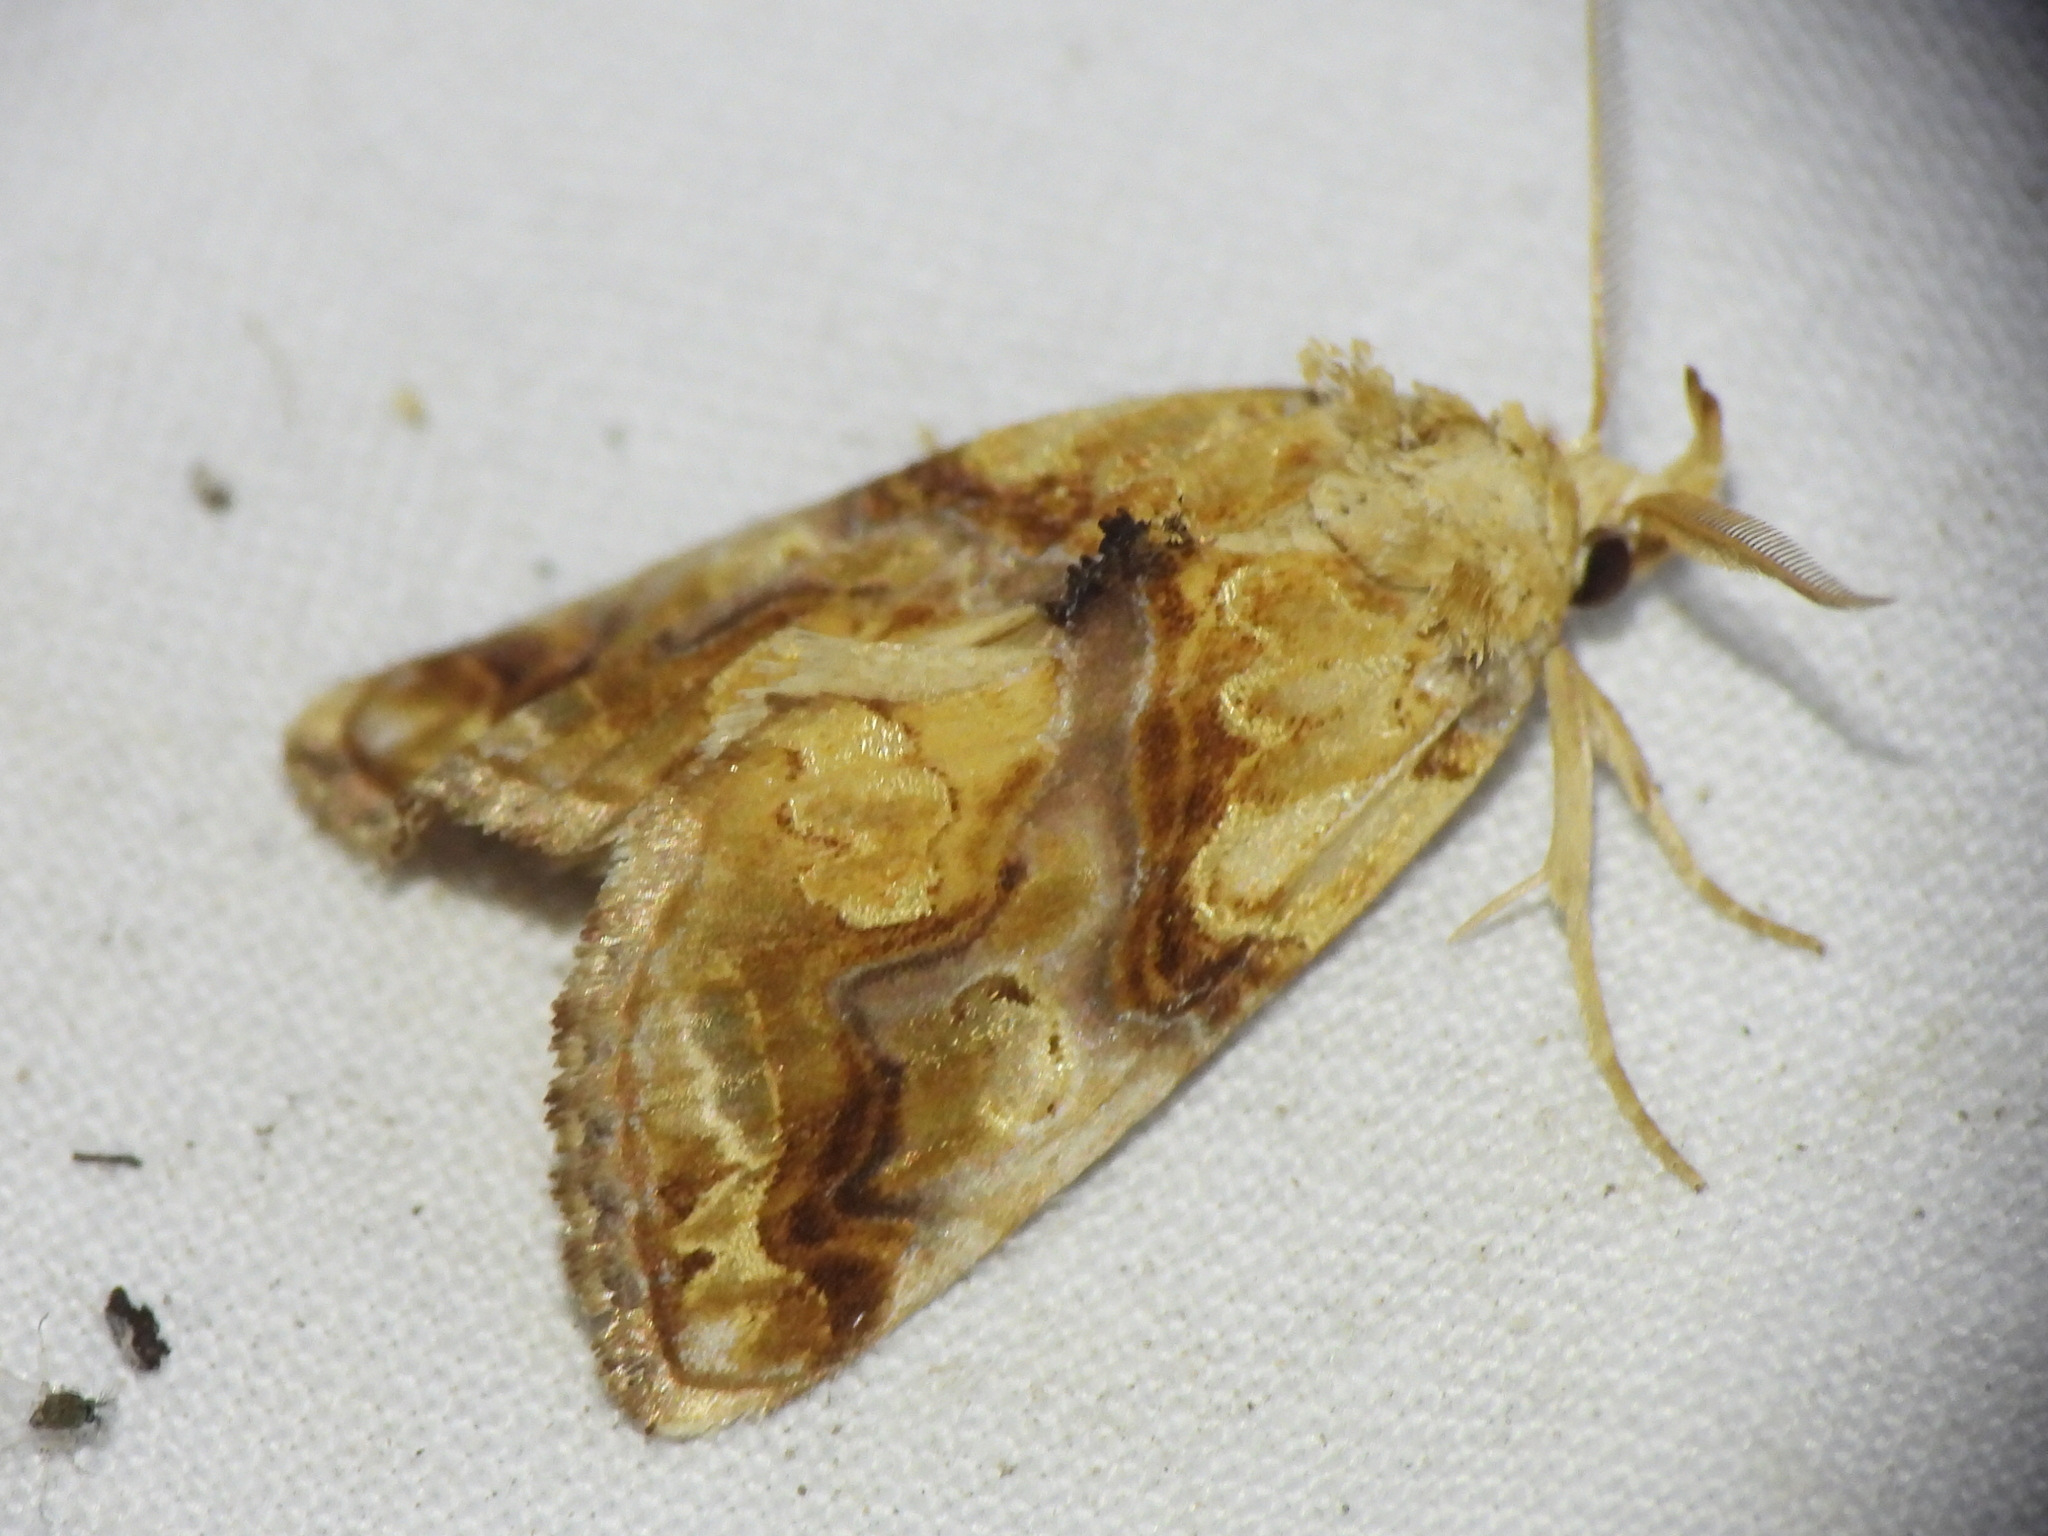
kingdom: Animalia
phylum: Arthropoda
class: Insecta
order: Lepidoptera
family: Erebidae
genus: Plusiodonta
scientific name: Plusiodonta compressipalpis
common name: Moonseed moth
